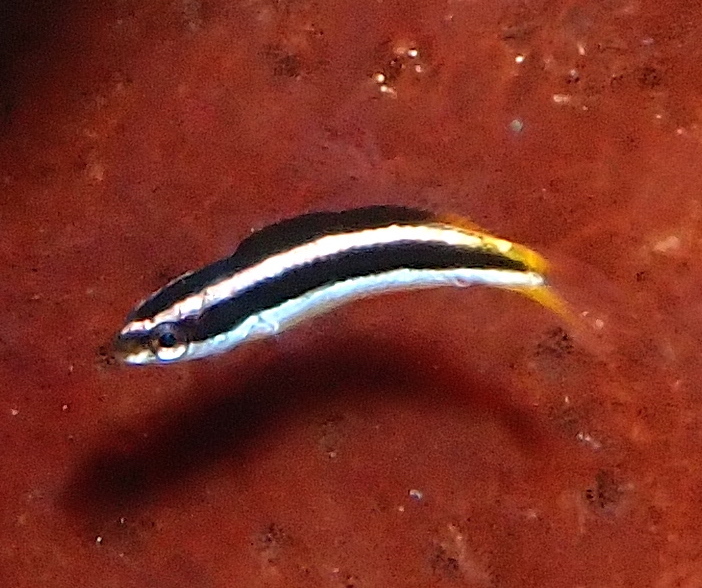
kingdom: Animalia
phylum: Chordata
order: Perciformes
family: Labridae
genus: Thalassoma
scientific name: Thalassoma amblycephalum
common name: Bluehead wrasse
